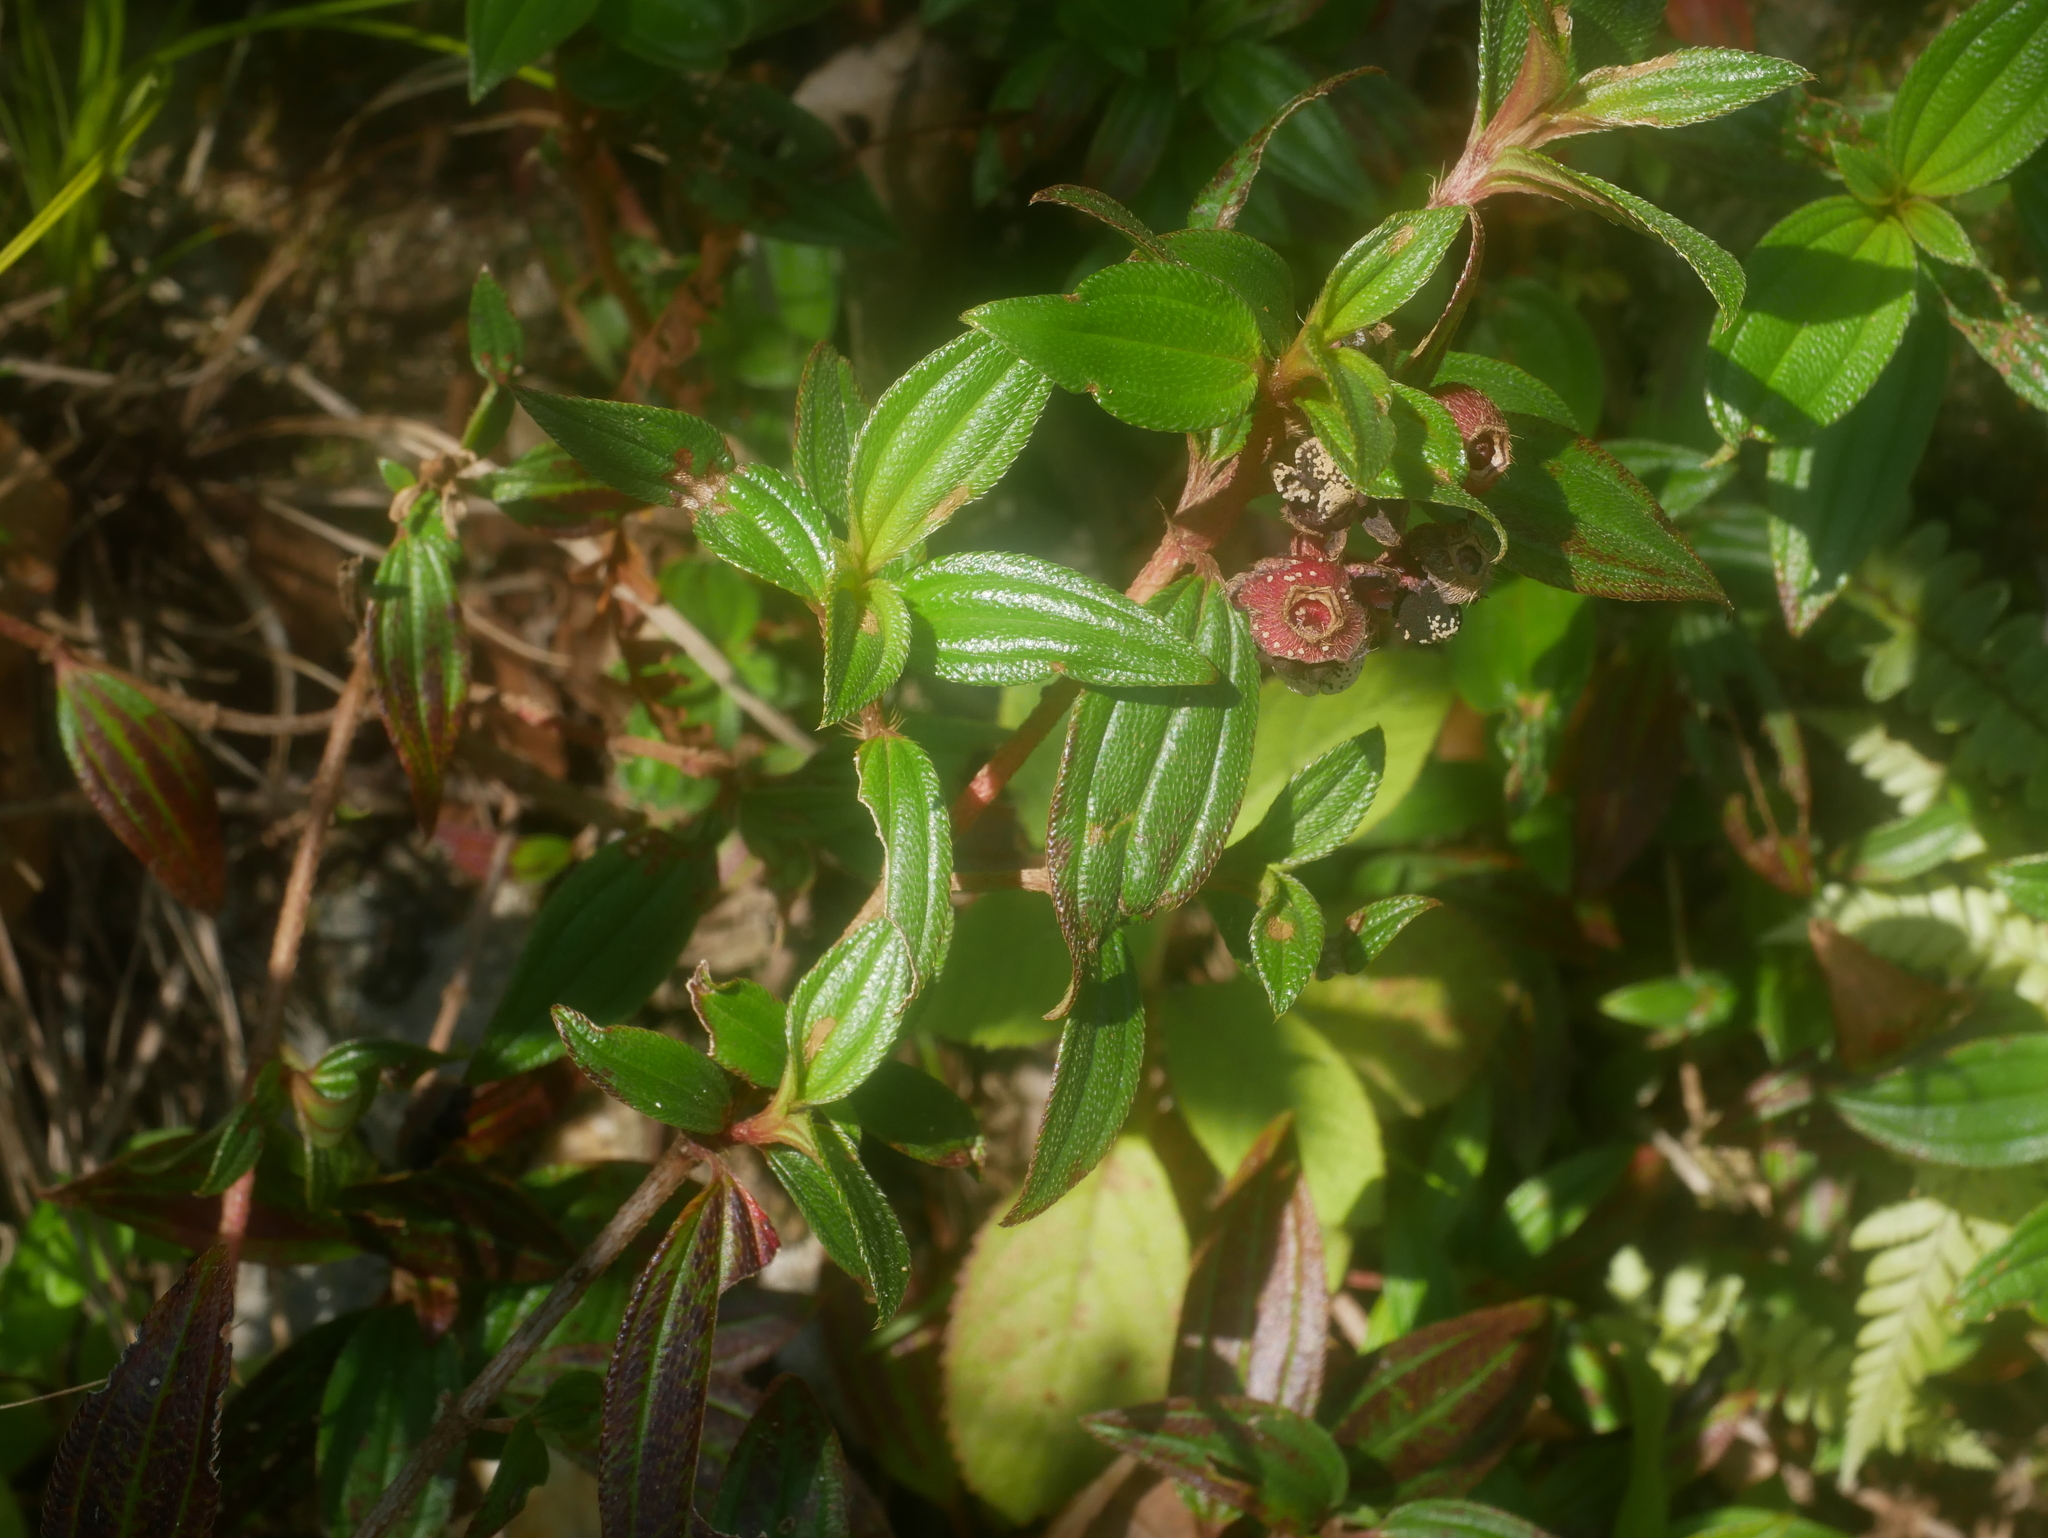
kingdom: Plantae
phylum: Tracheophyta
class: Magnoliopsida
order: Myrtales
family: Melastomataceae
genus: Melastoma
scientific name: Melastoma scaberrima
